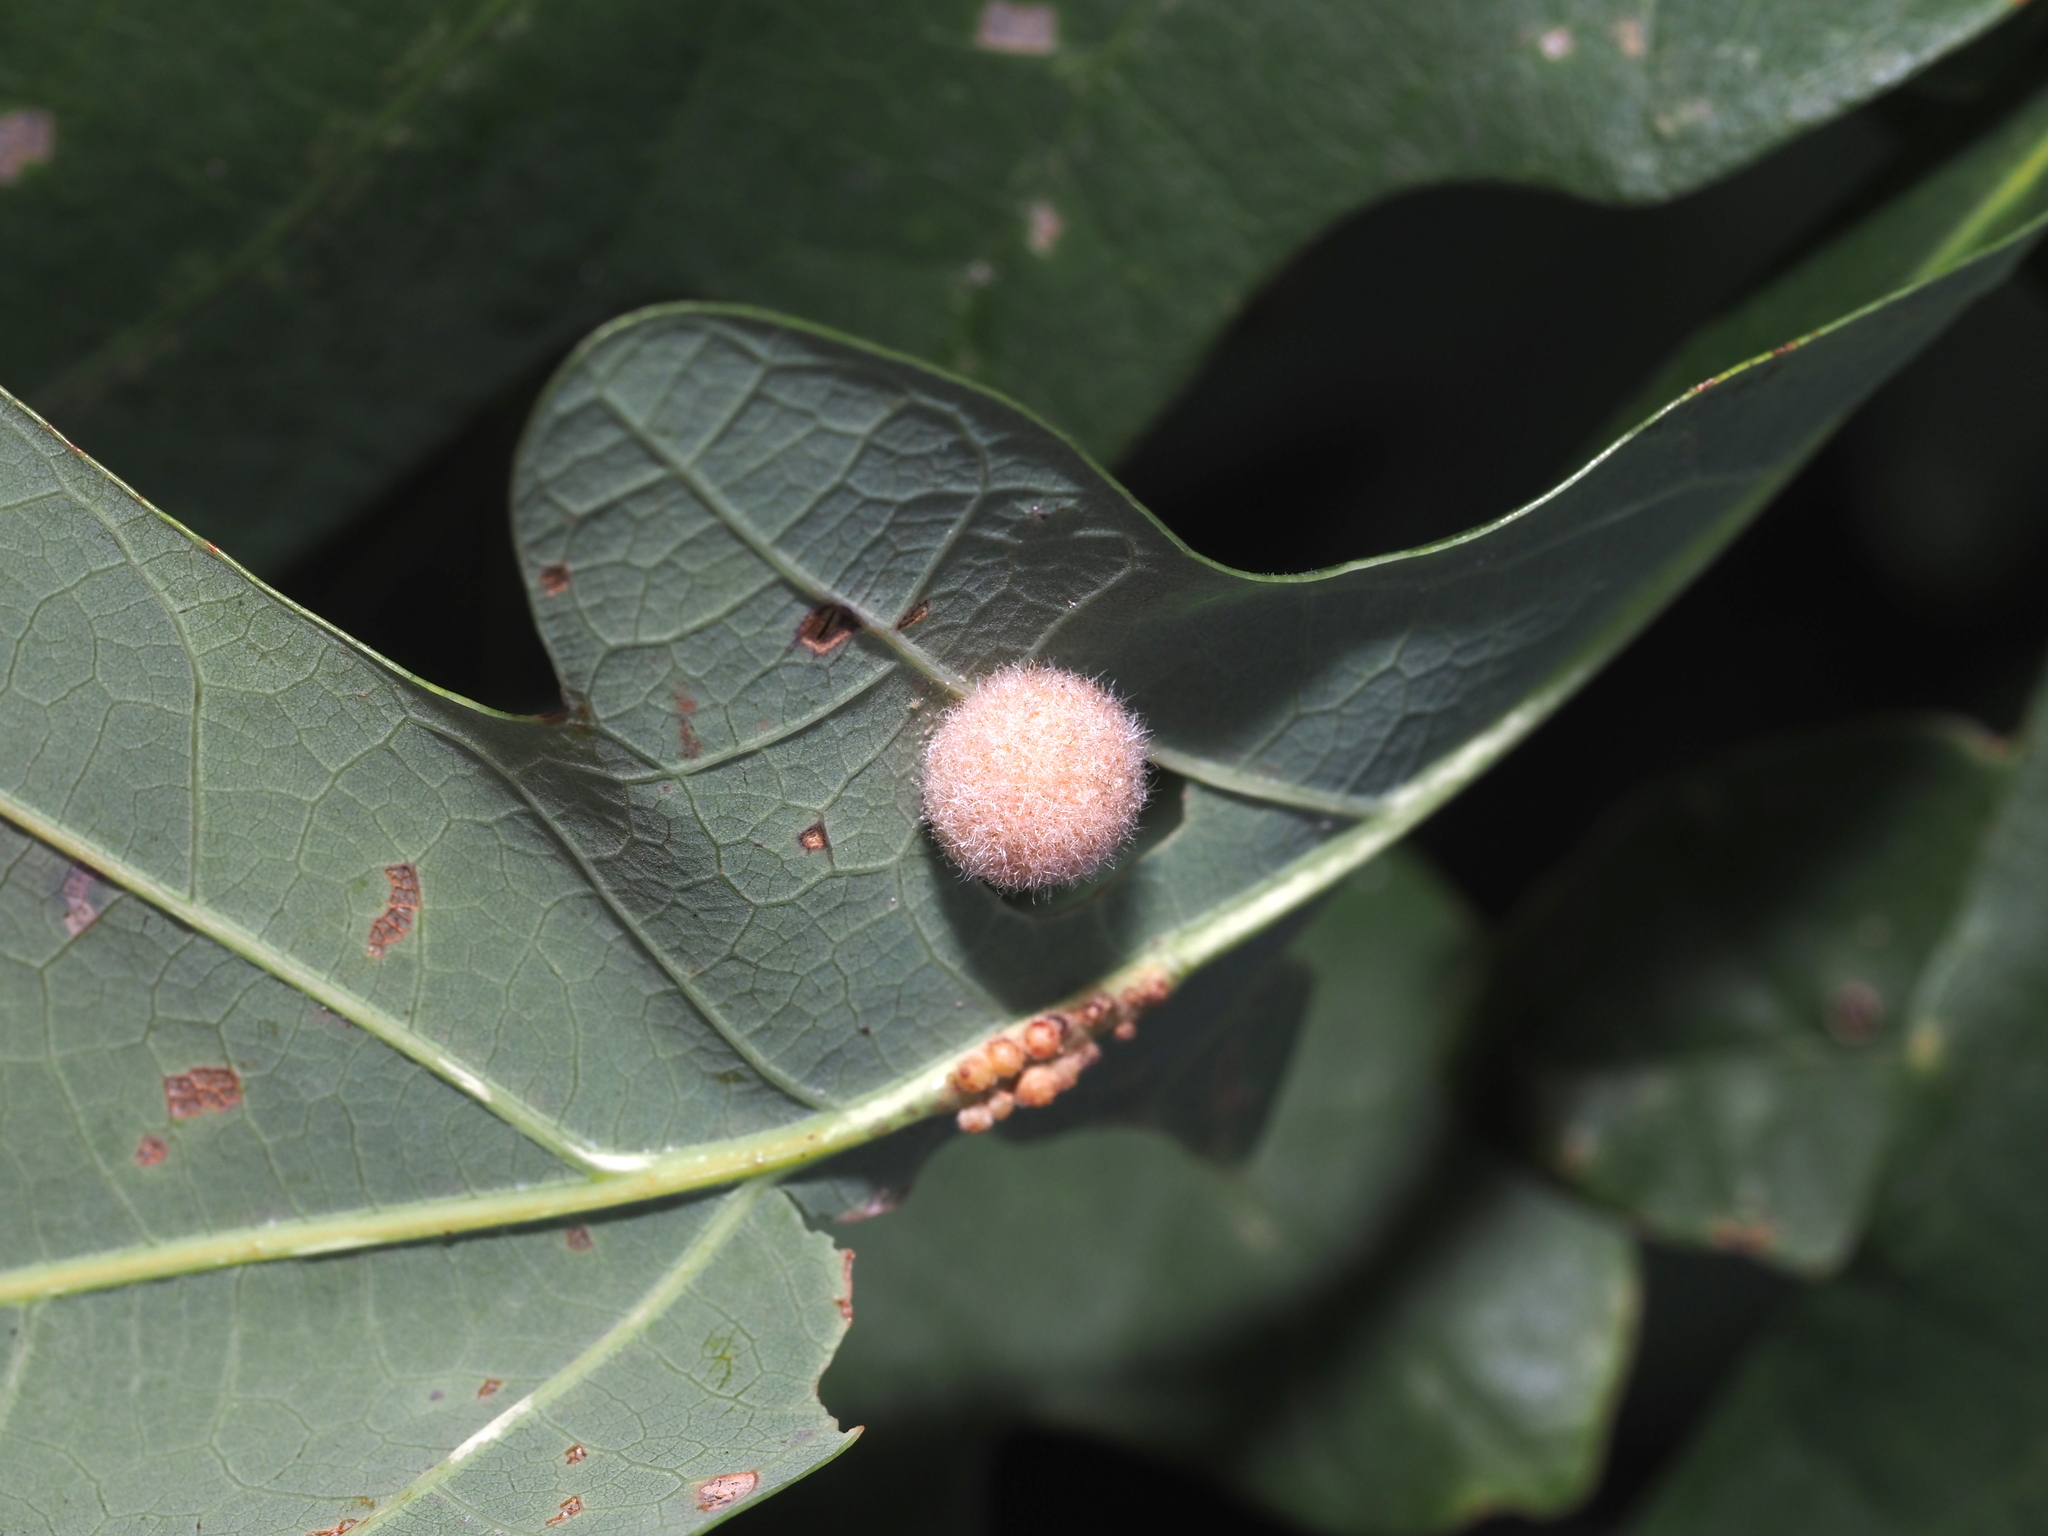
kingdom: Animalia
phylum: Arthropoda
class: Insecta
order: Hymenoptera
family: Cynipidae
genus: Philonix
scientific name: Philonix fulvicollis
